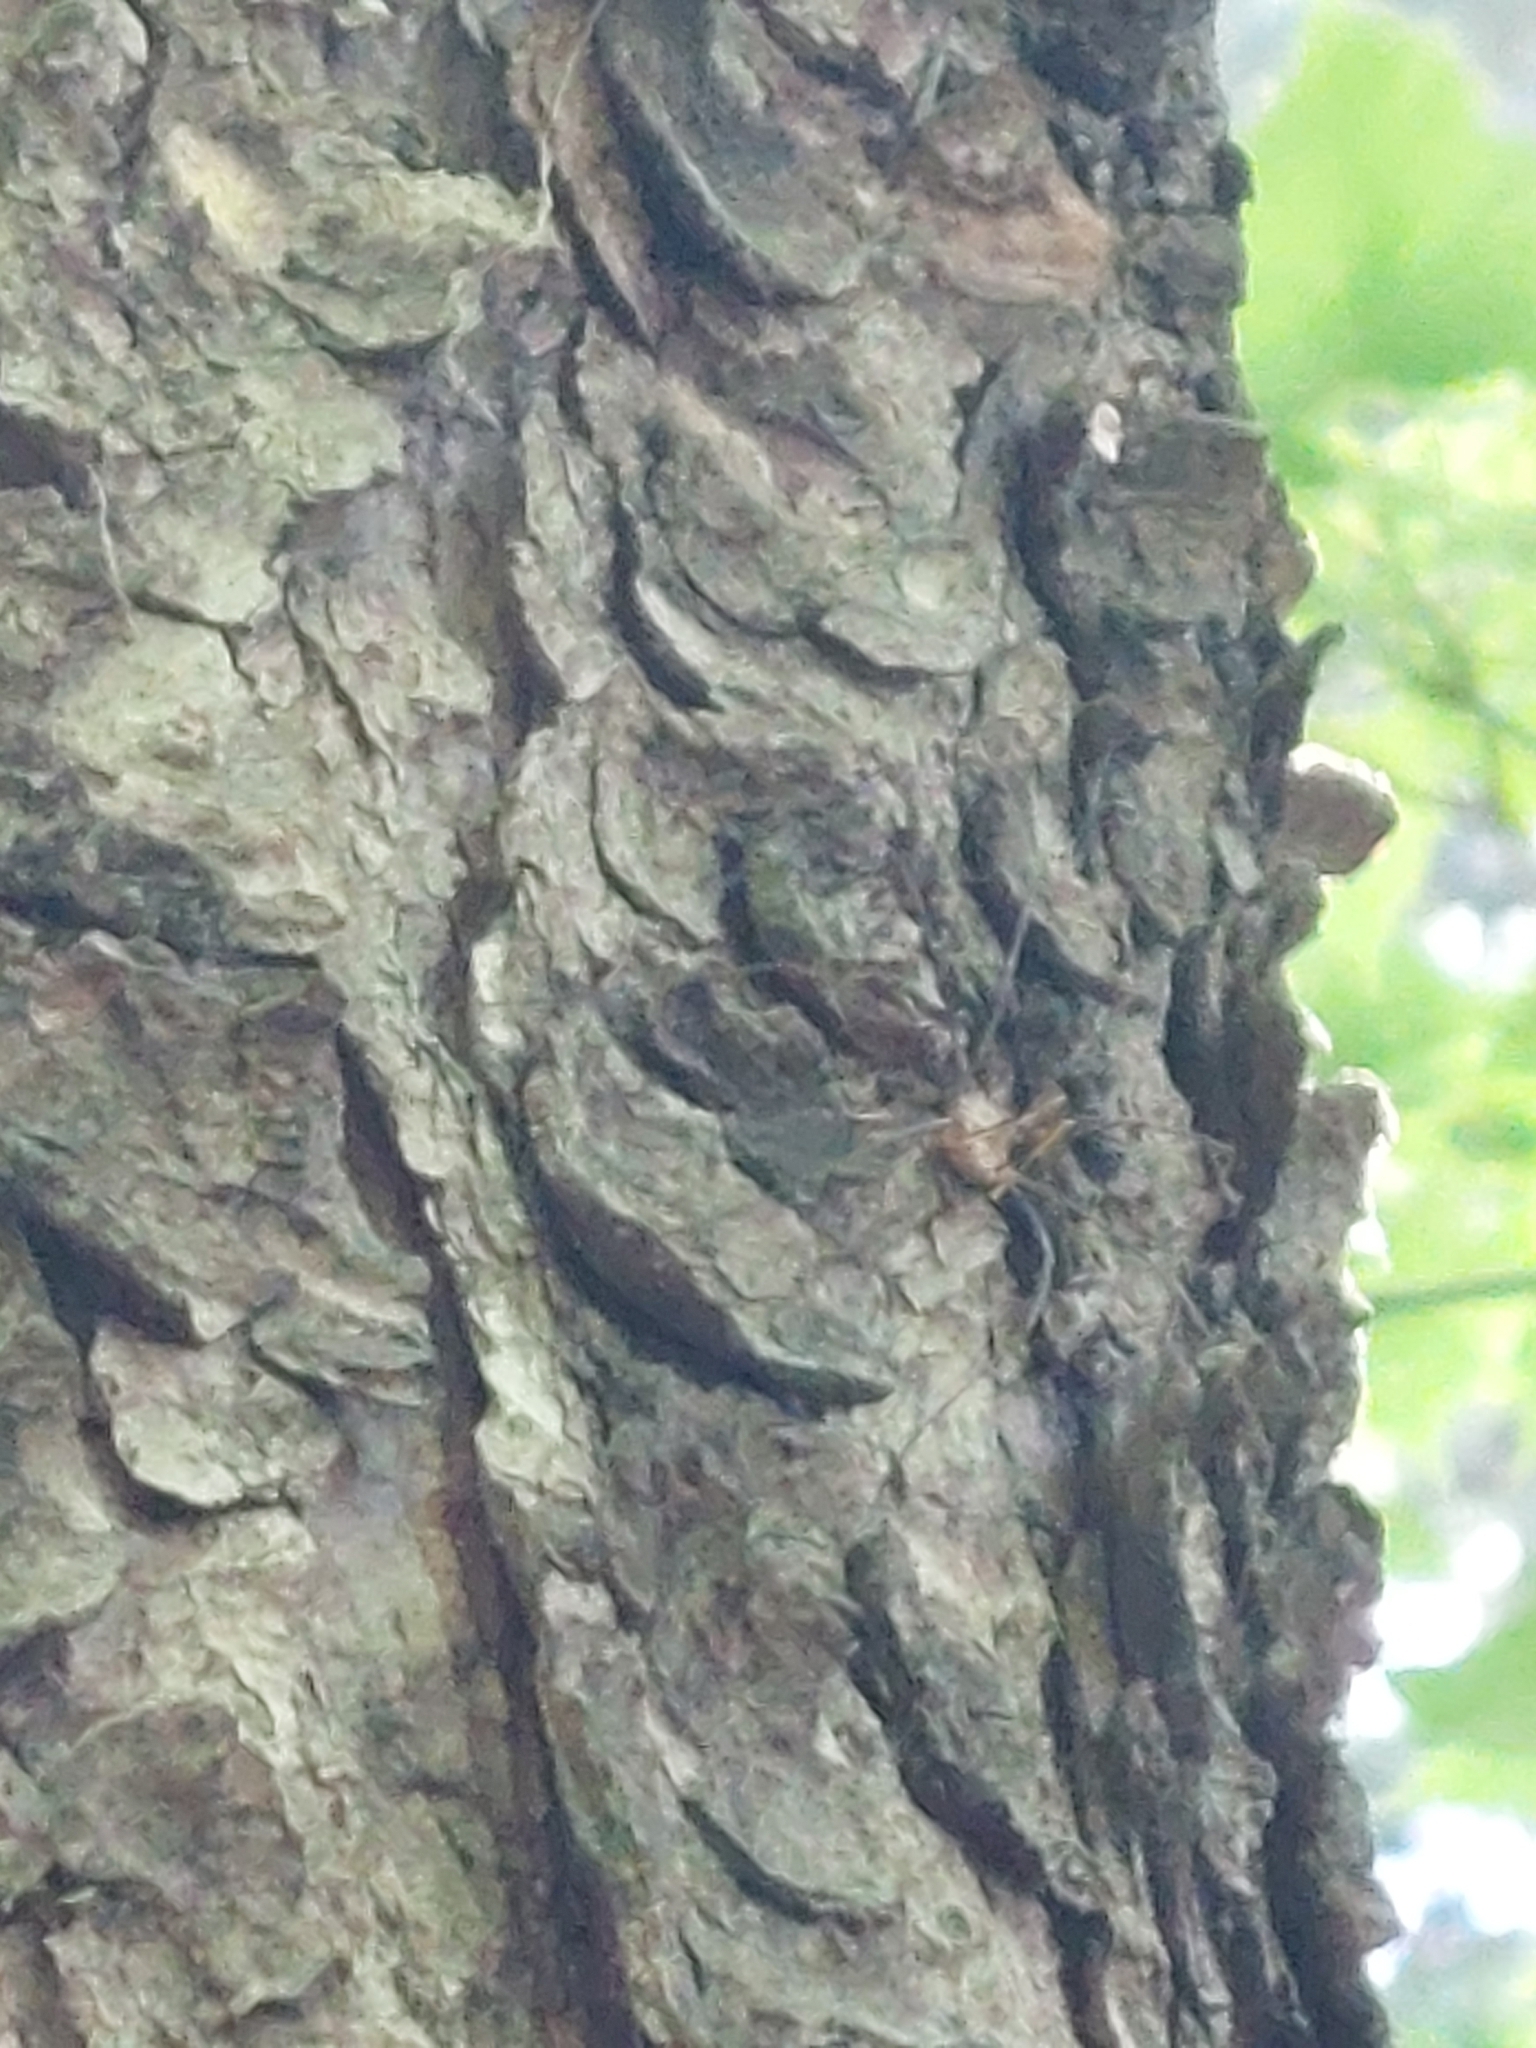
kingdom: Animalia
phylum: Arthropoda
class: Arachnida
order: Opiliones
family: Phalangiidae
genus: Phalangium
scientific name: Phalangium opilio
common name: Daddy longleg
